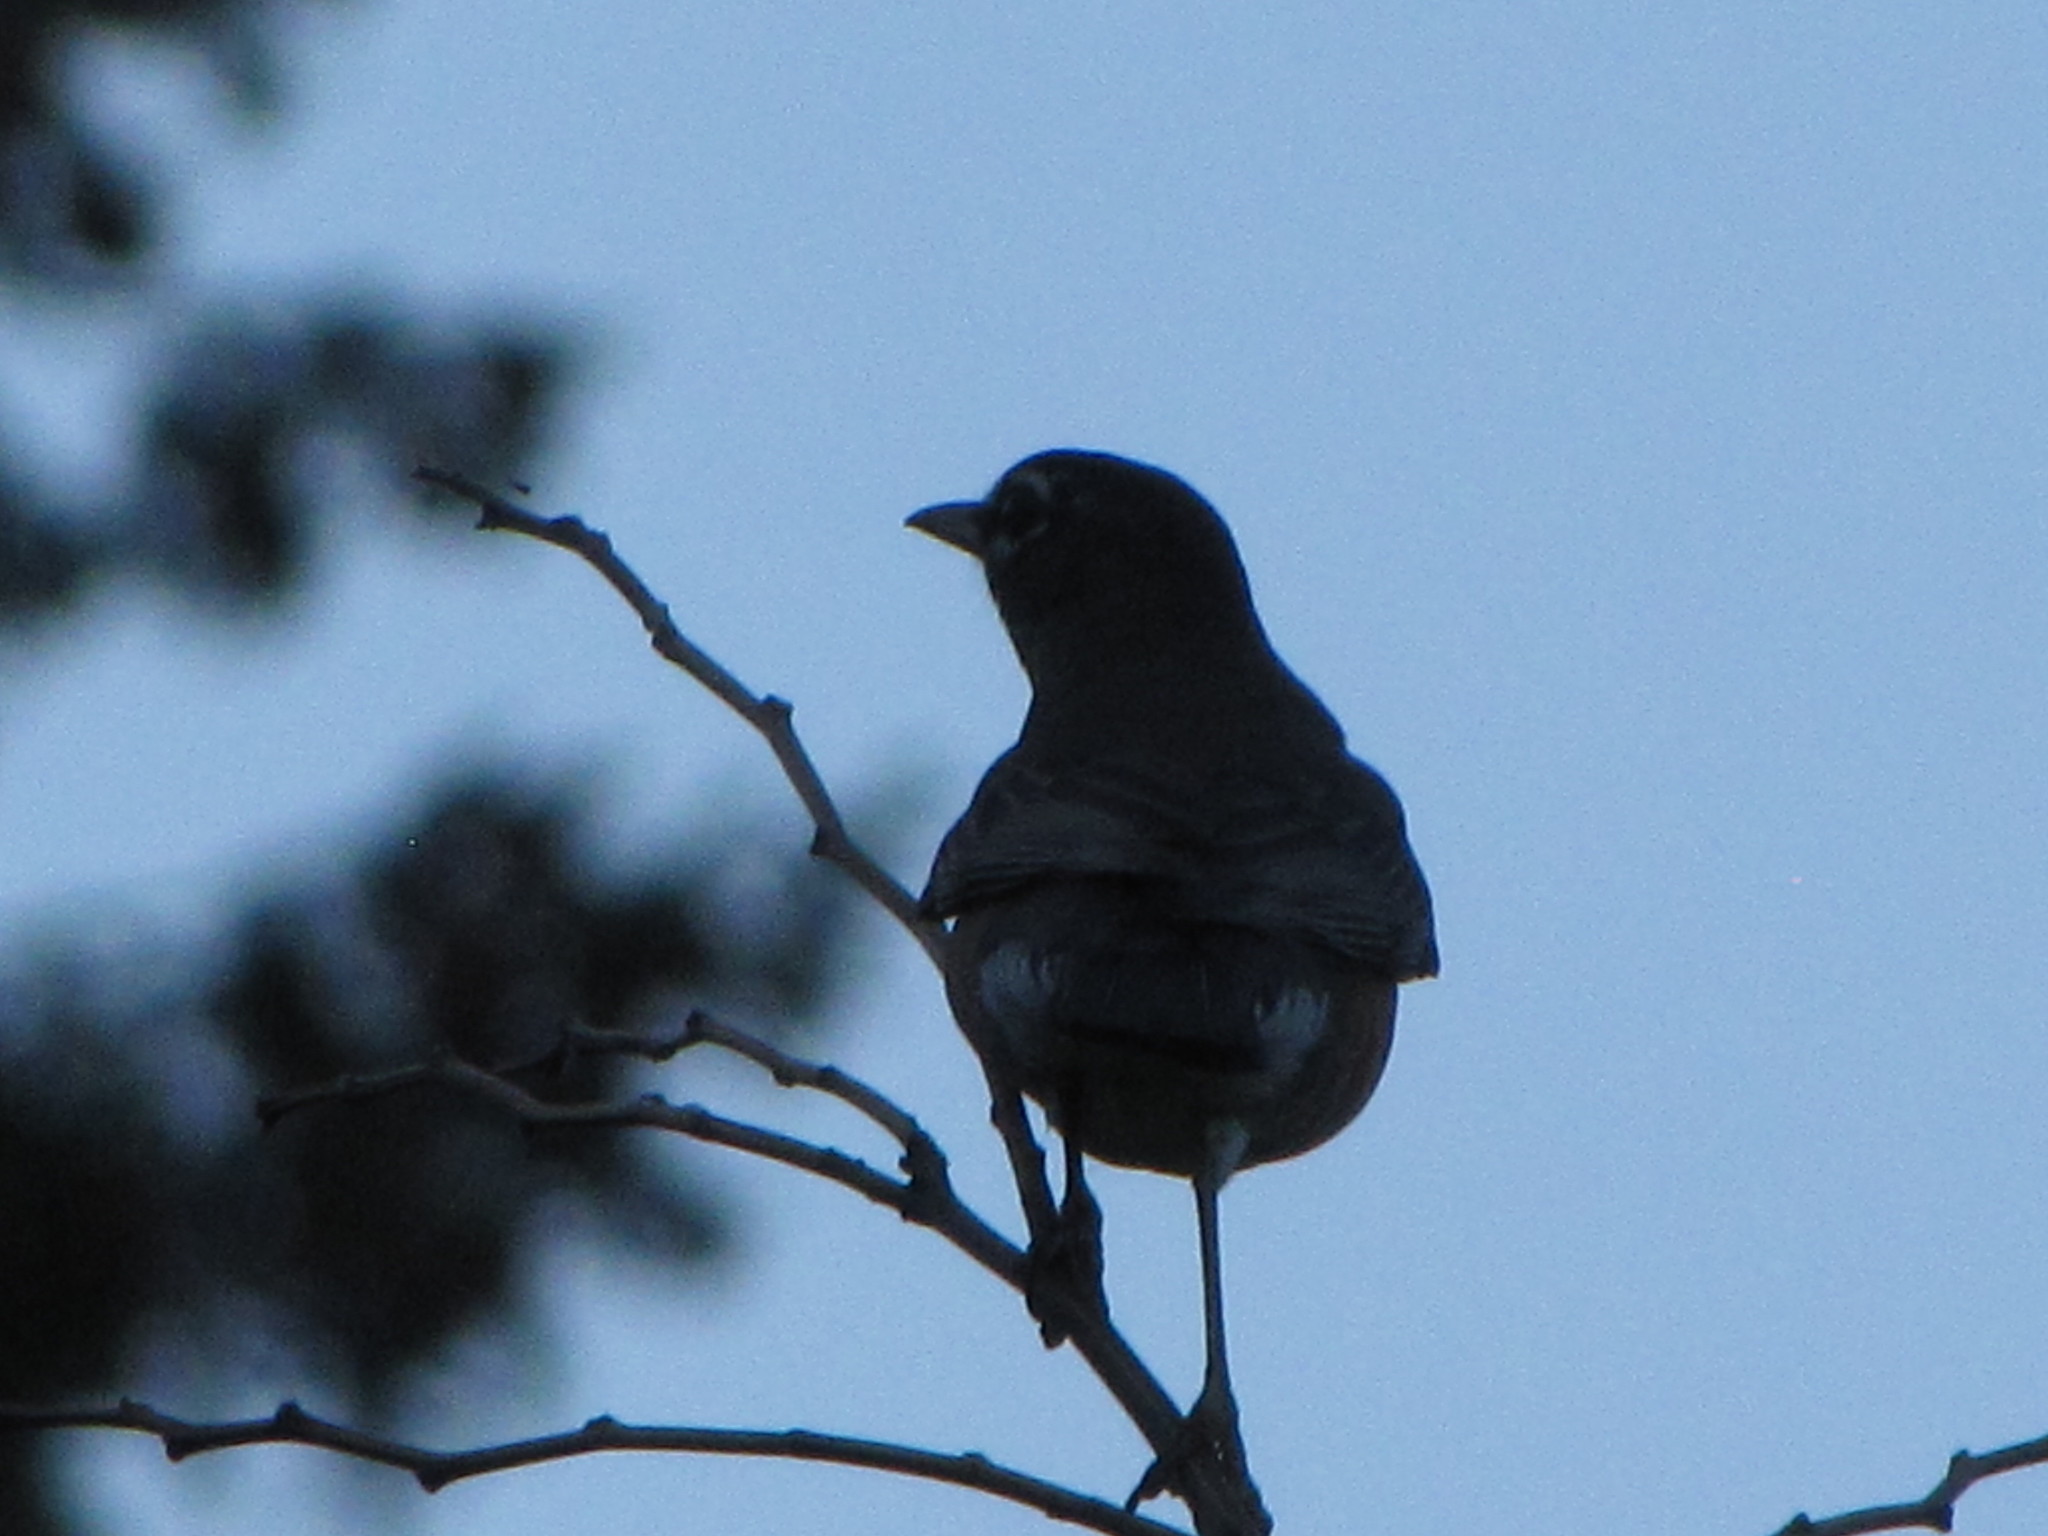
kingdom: Animalia
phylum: Chordata
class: Aves
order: Passeriformes
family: Turdidae
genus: Turdus
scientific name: Turdus migratorius
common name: American robin
